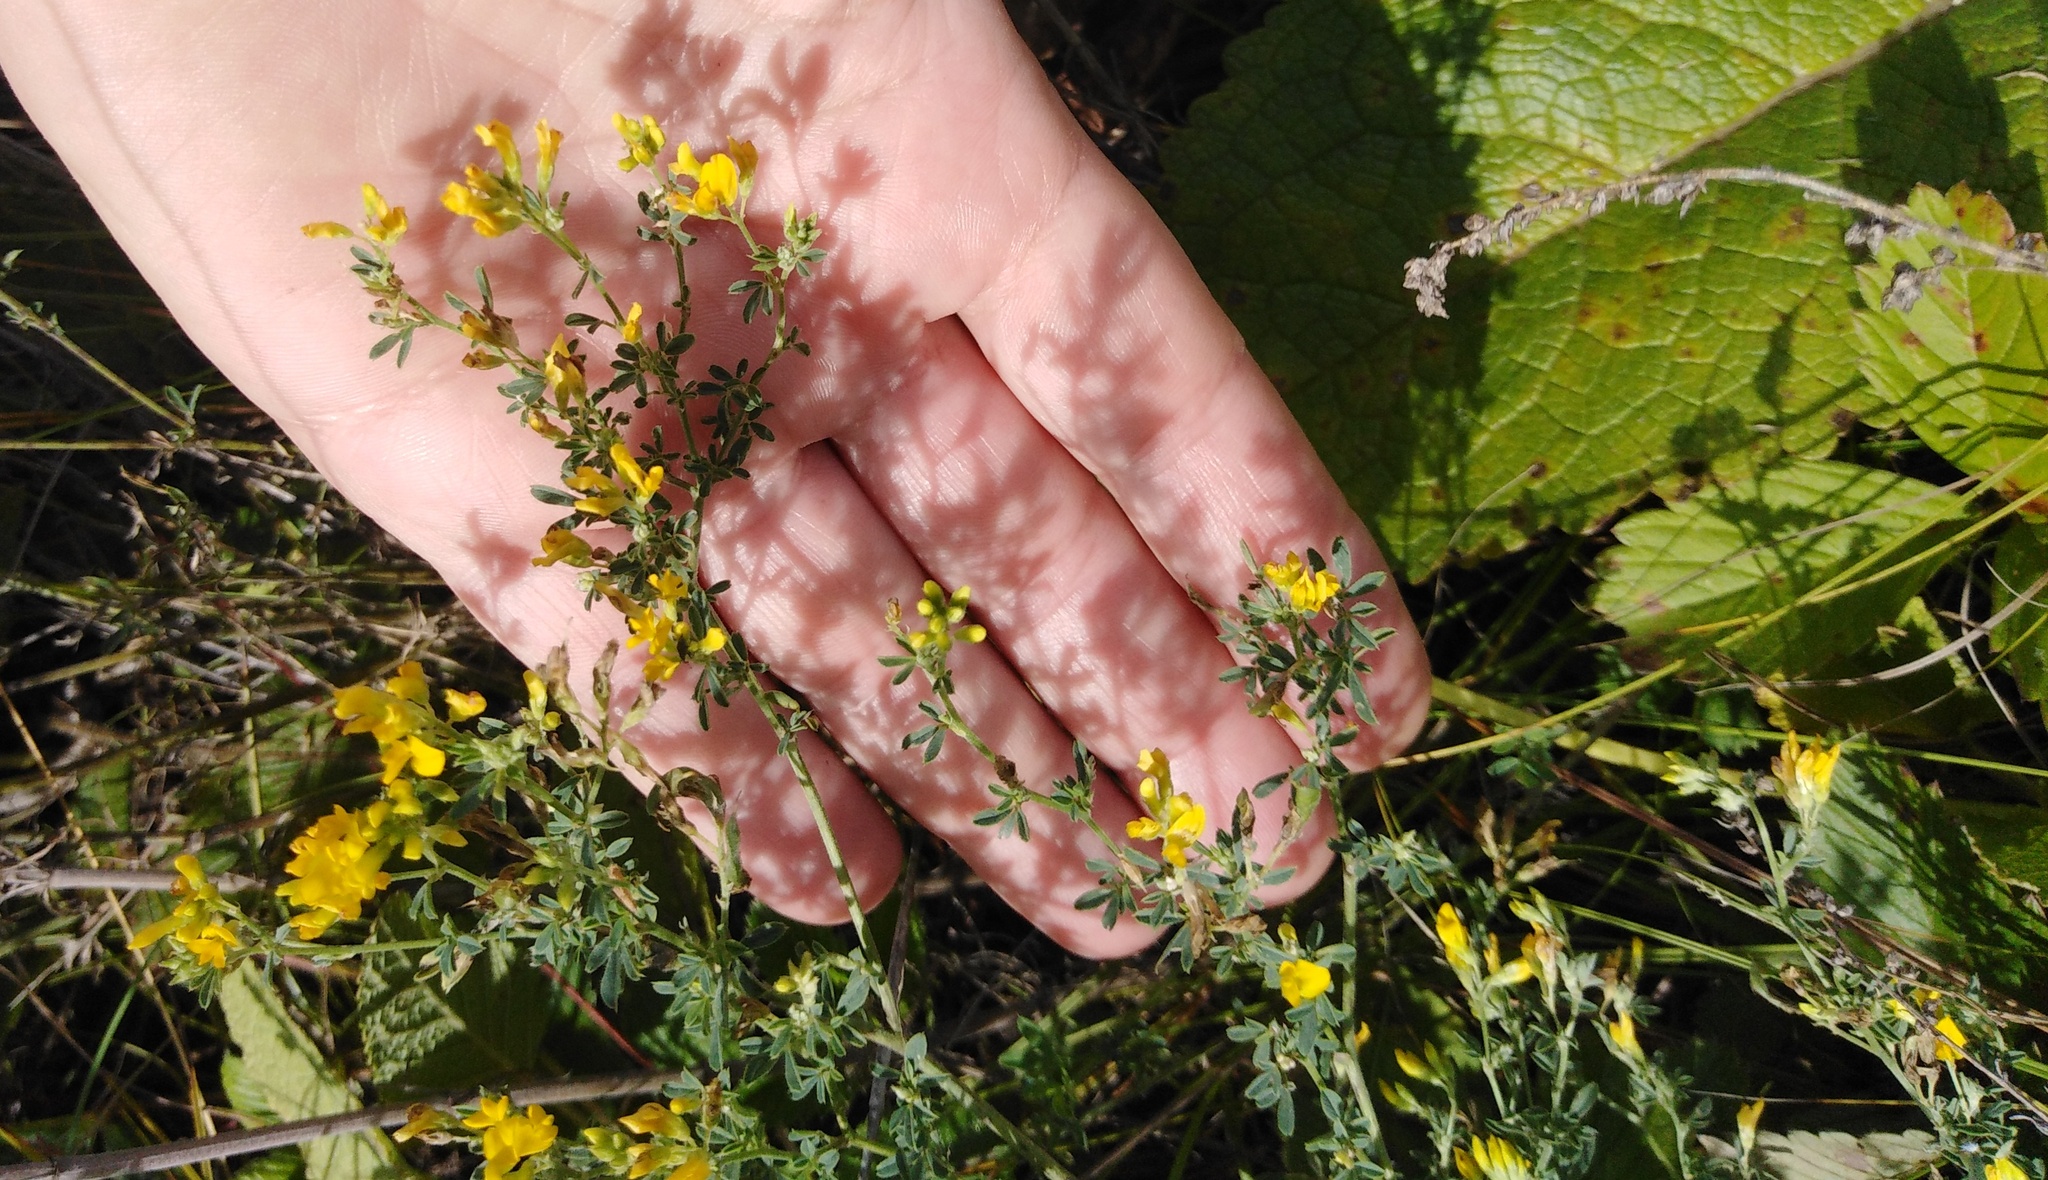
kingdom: Plantae
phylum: Tracheophyta
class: Magnoliopsida
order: Fabales
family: Fabaceae
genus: Medicago
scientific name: Medicago falcata
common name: Sickle medick
